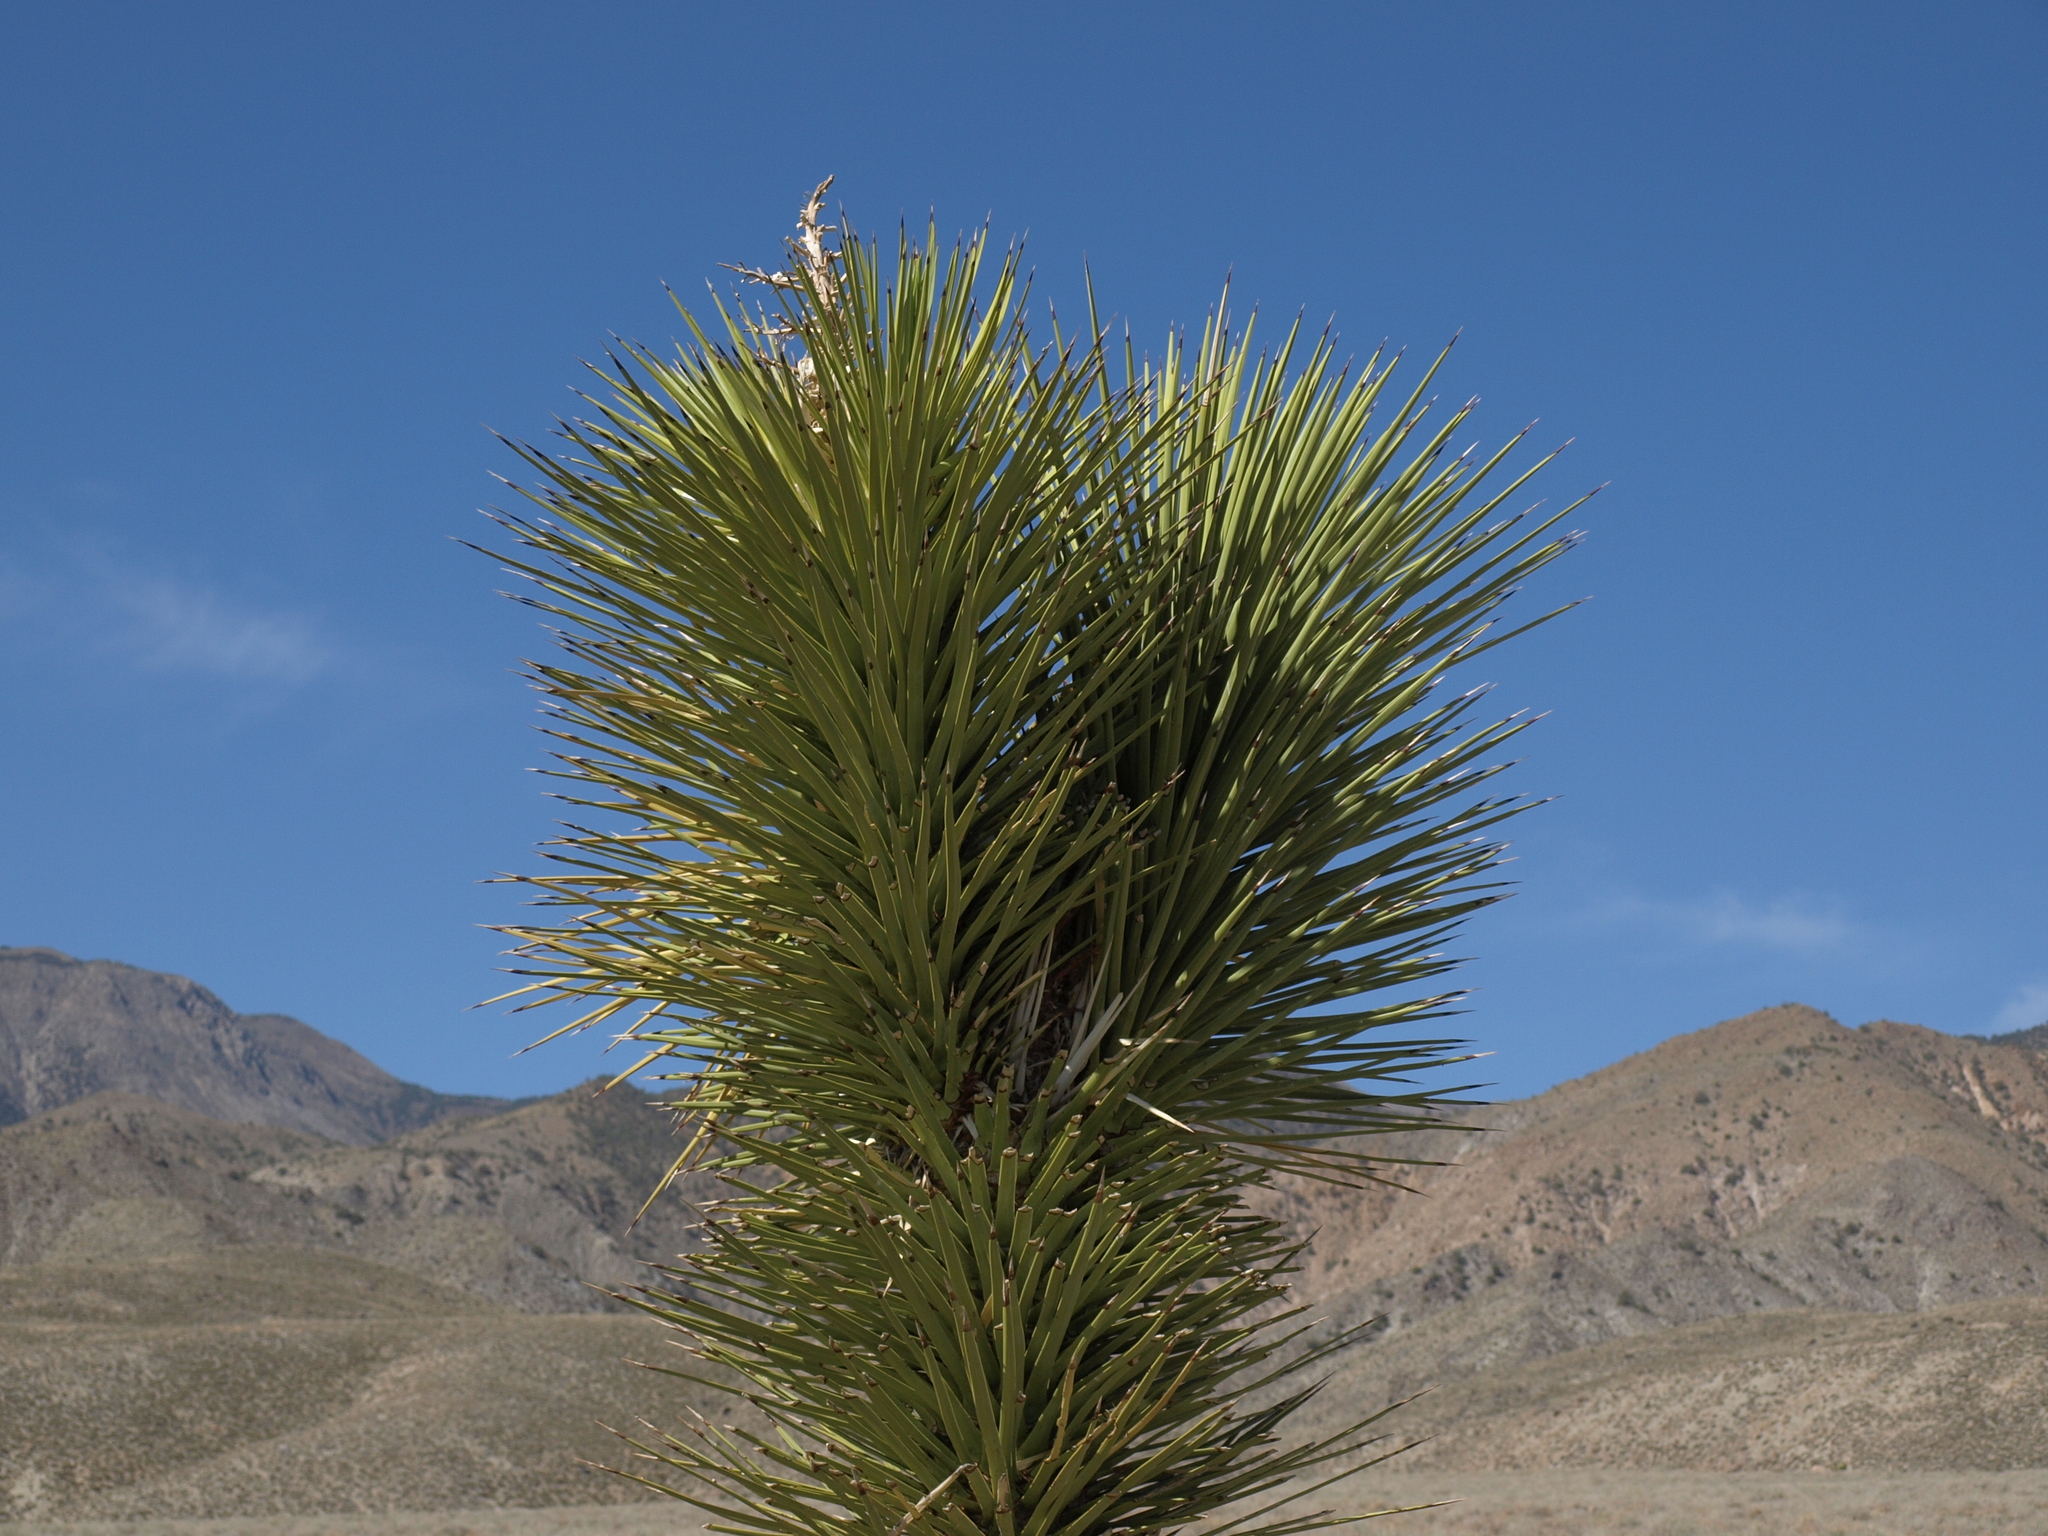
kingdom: Plantae
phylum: Tracheophyta
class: Liliopsida
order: Asparagales
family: Asparagaceae
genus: Yucca
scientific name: Yucca brevifolia
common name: Joshua tree
